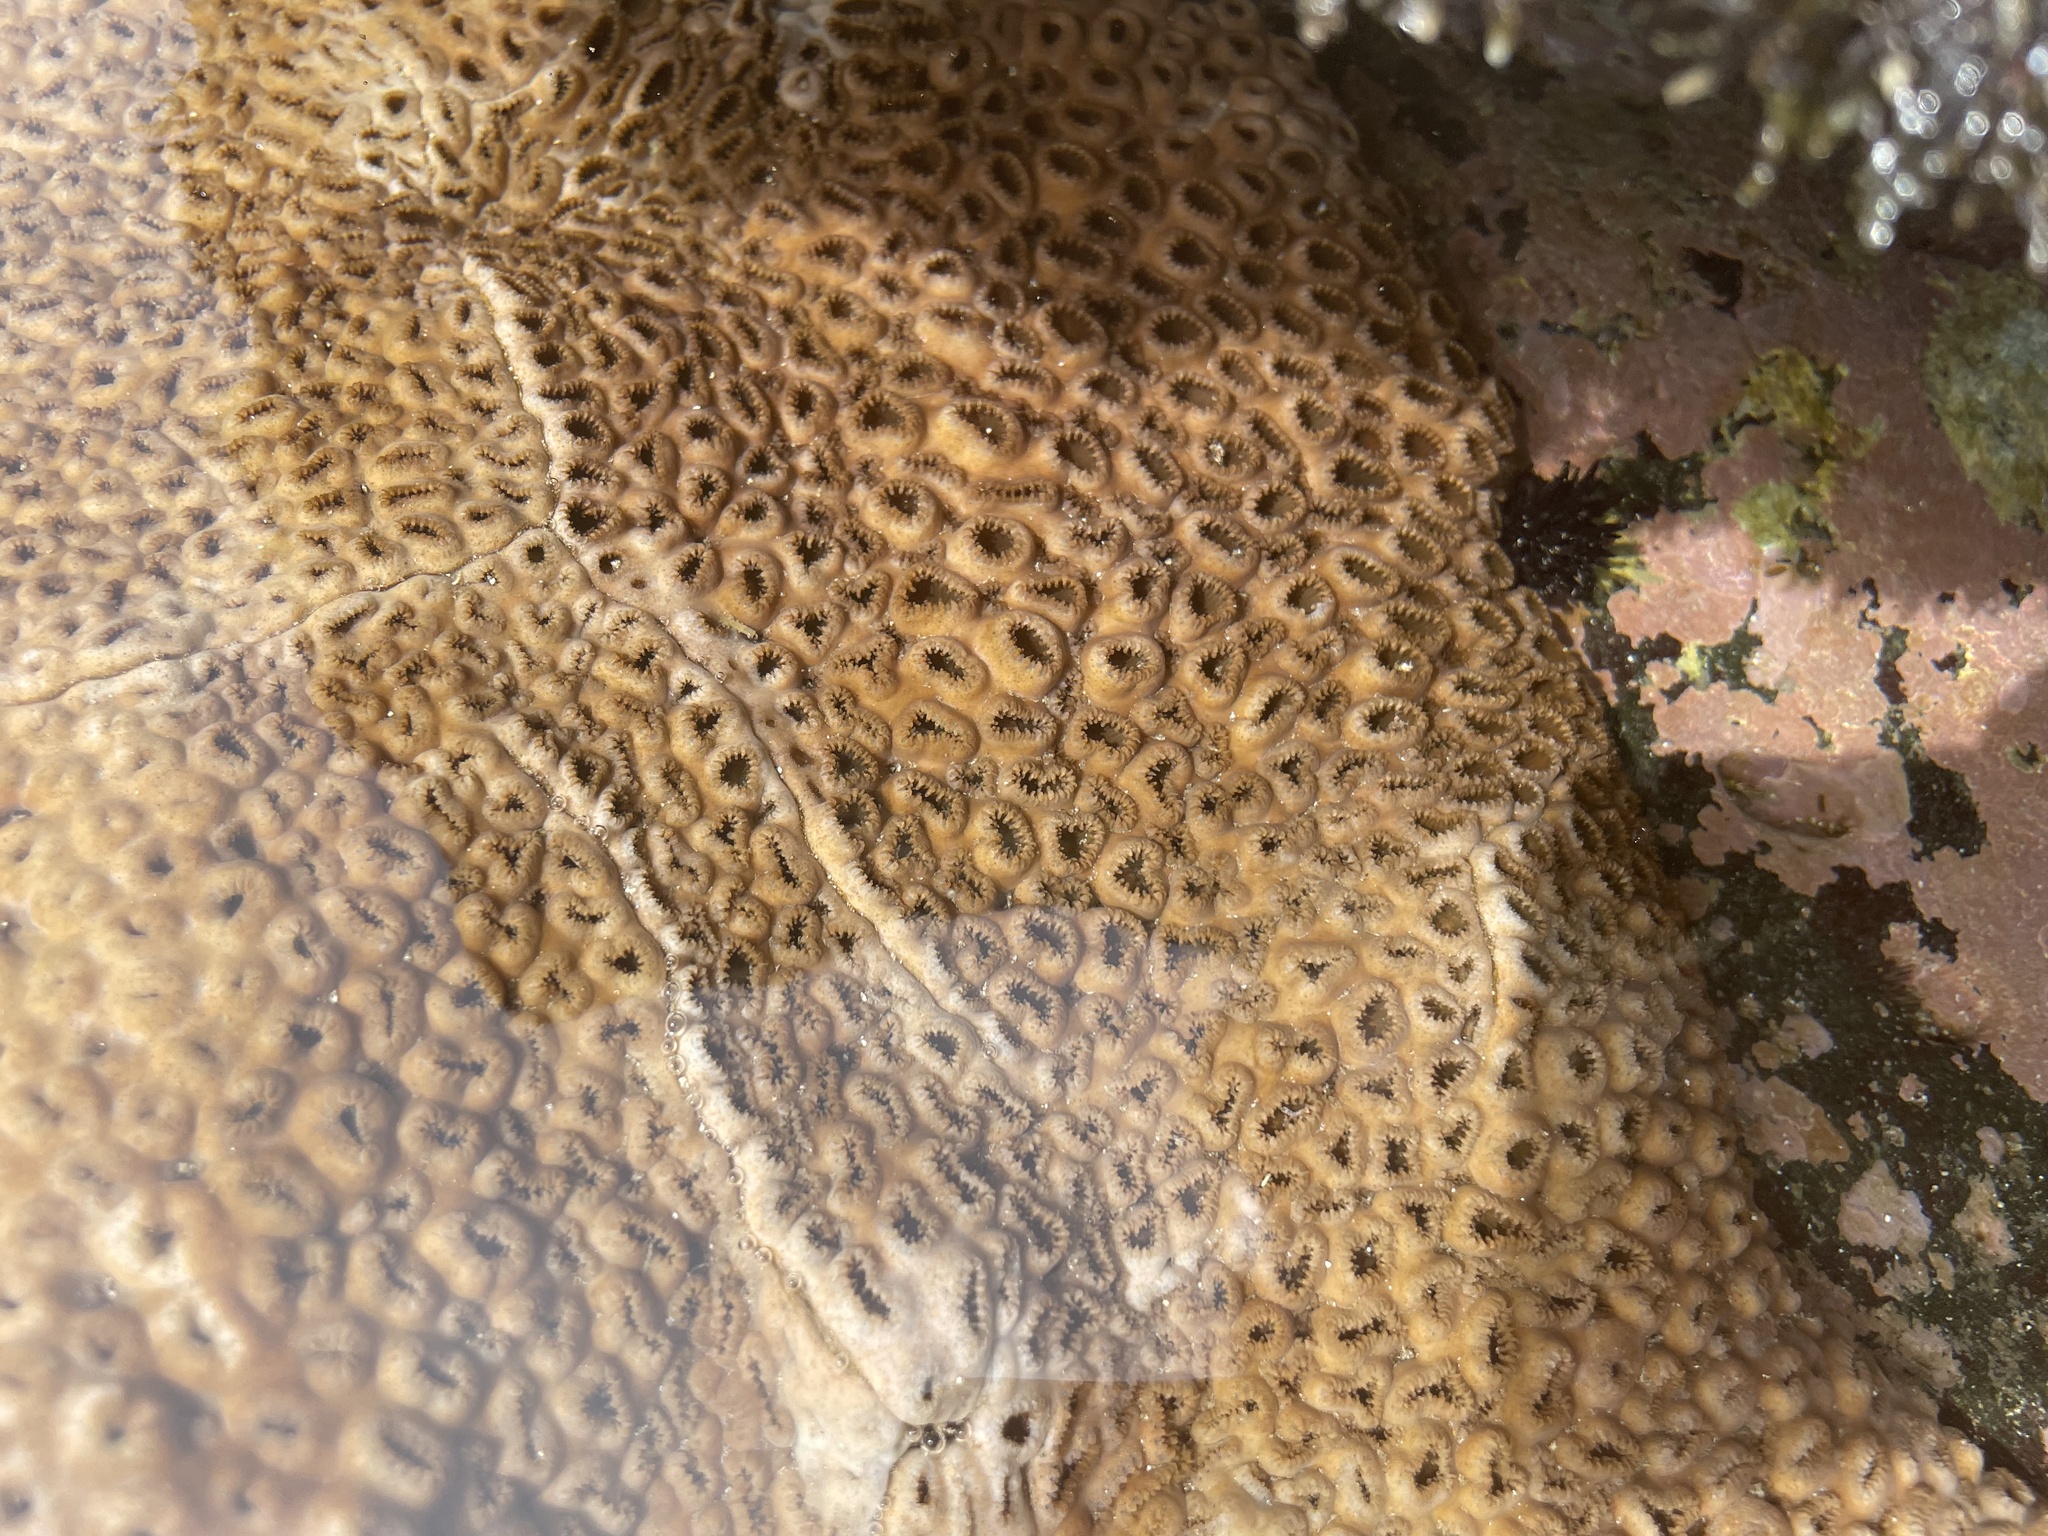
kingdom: Animalia
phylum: Cnidaria
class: Anthozoa
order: Zoantharia
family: Sphenopidae
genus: Palythoa
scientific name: Palythoa tuberculosa
